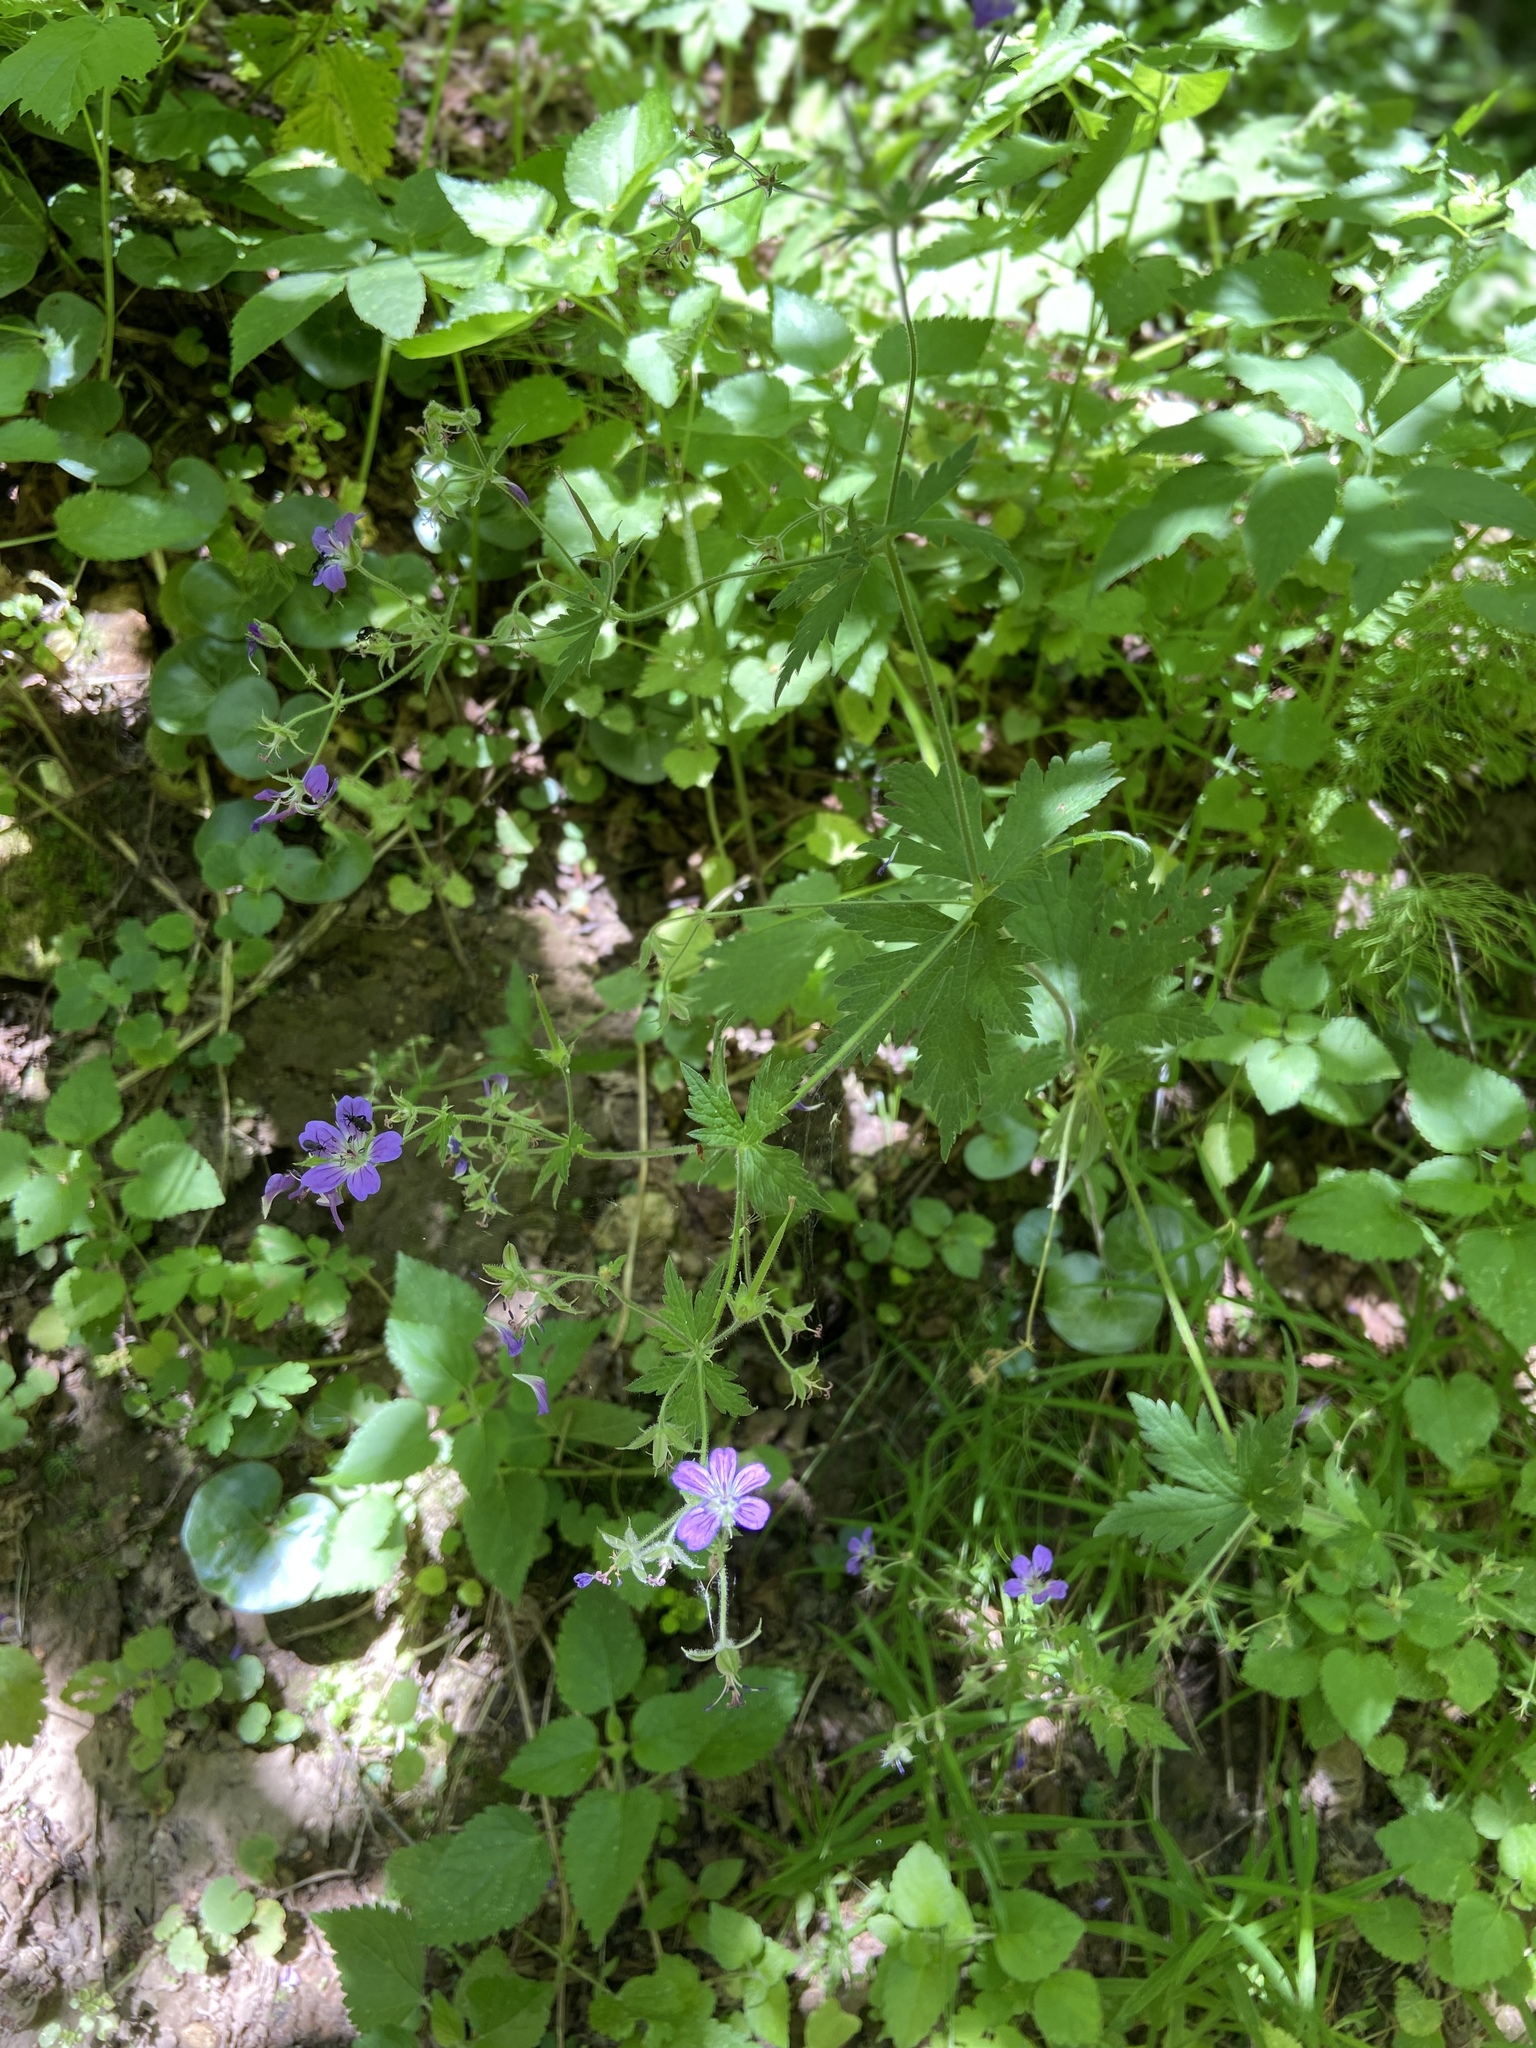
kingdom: Plantae
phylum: Tracheophyta
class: Magnoliopsida
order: Geraniales
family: Geraniaceae
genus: Geranium
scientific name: Geranium sylvaticum
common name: Wood crane's-bill
